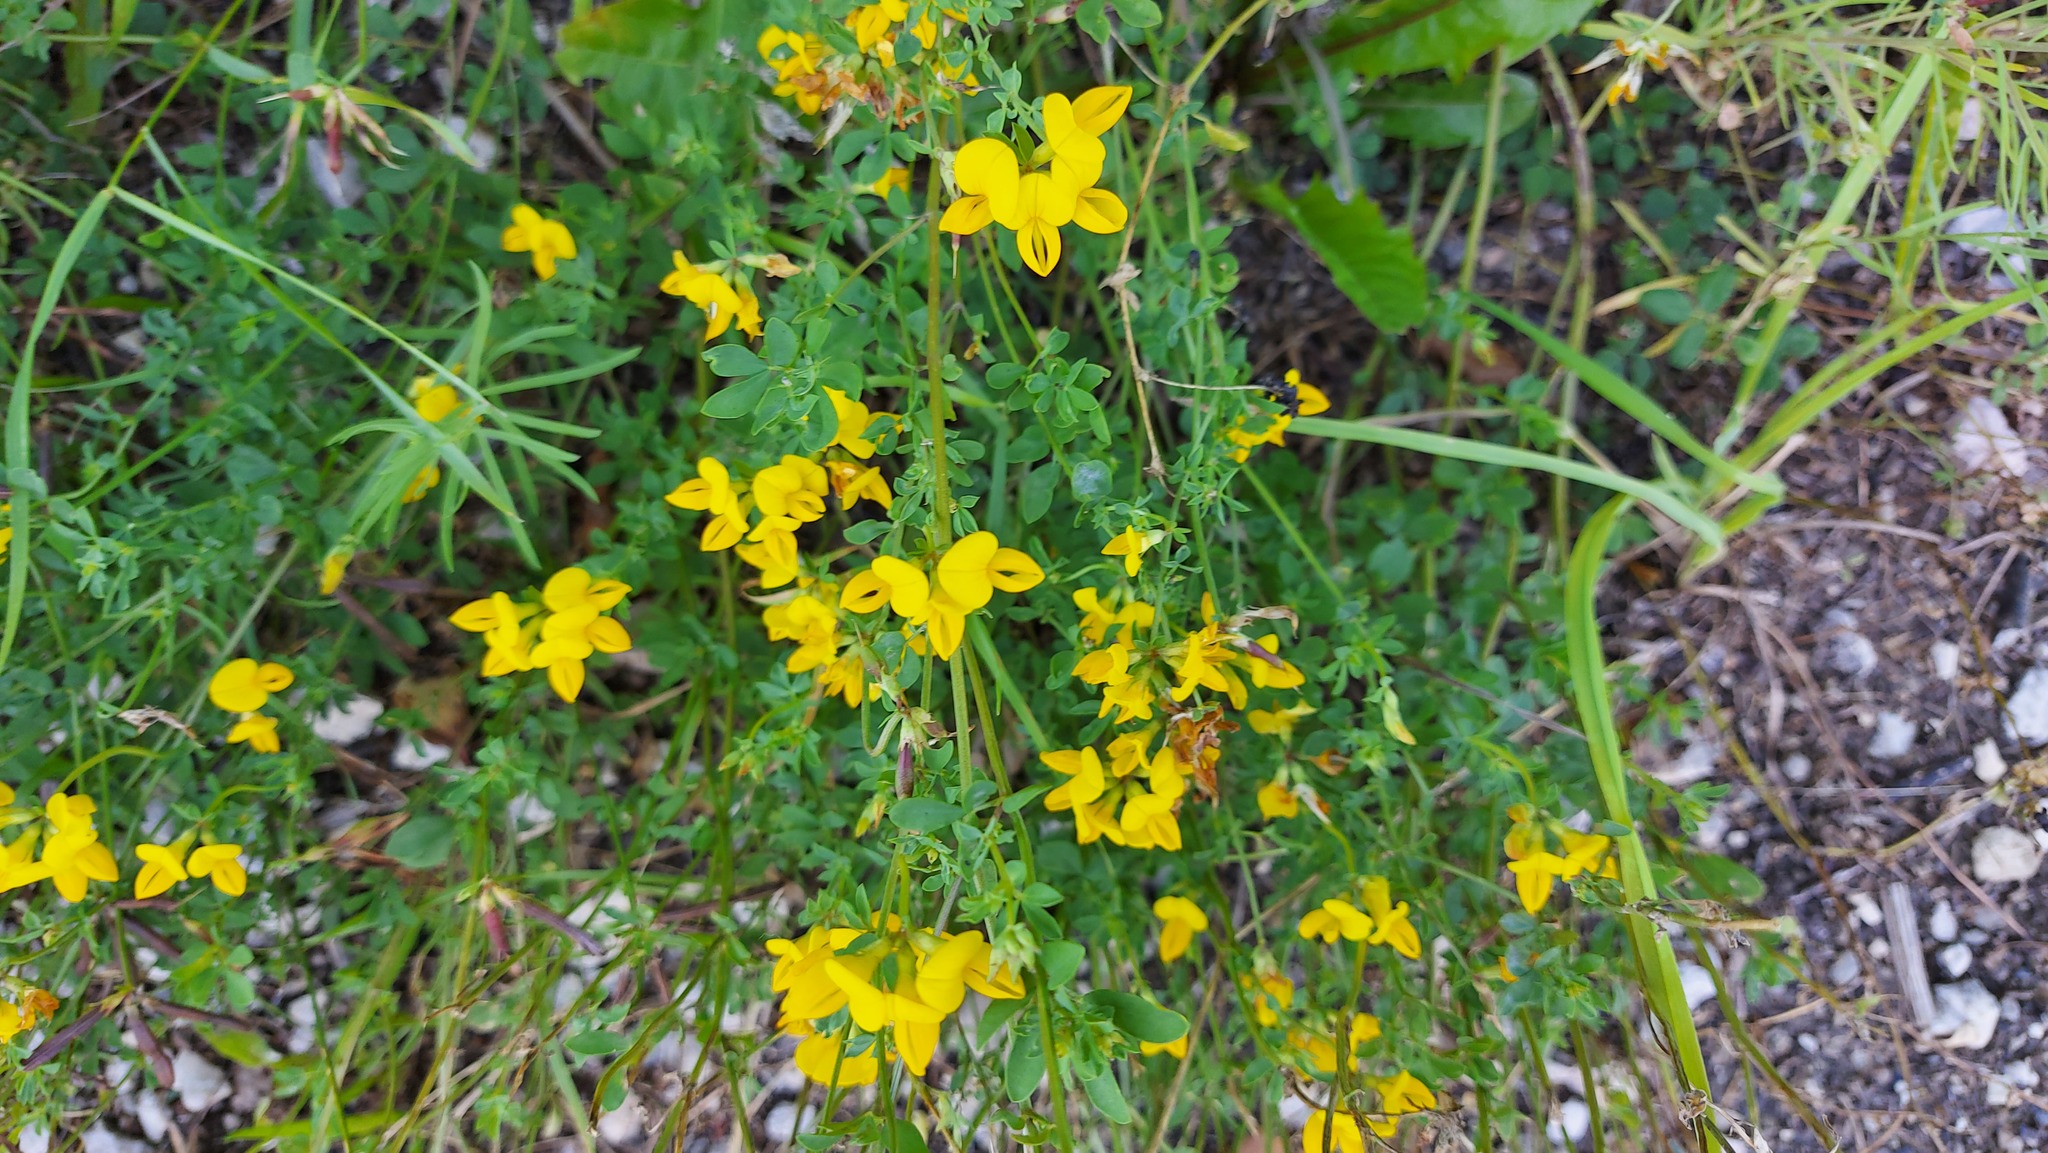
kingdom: Plantae
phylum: Tracheophyta
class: Magnoliopsida
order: Fabales
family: Fabaceae
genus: Lotus
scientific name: Lotus corniculatus
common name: Common bird's-foot-trefoil
